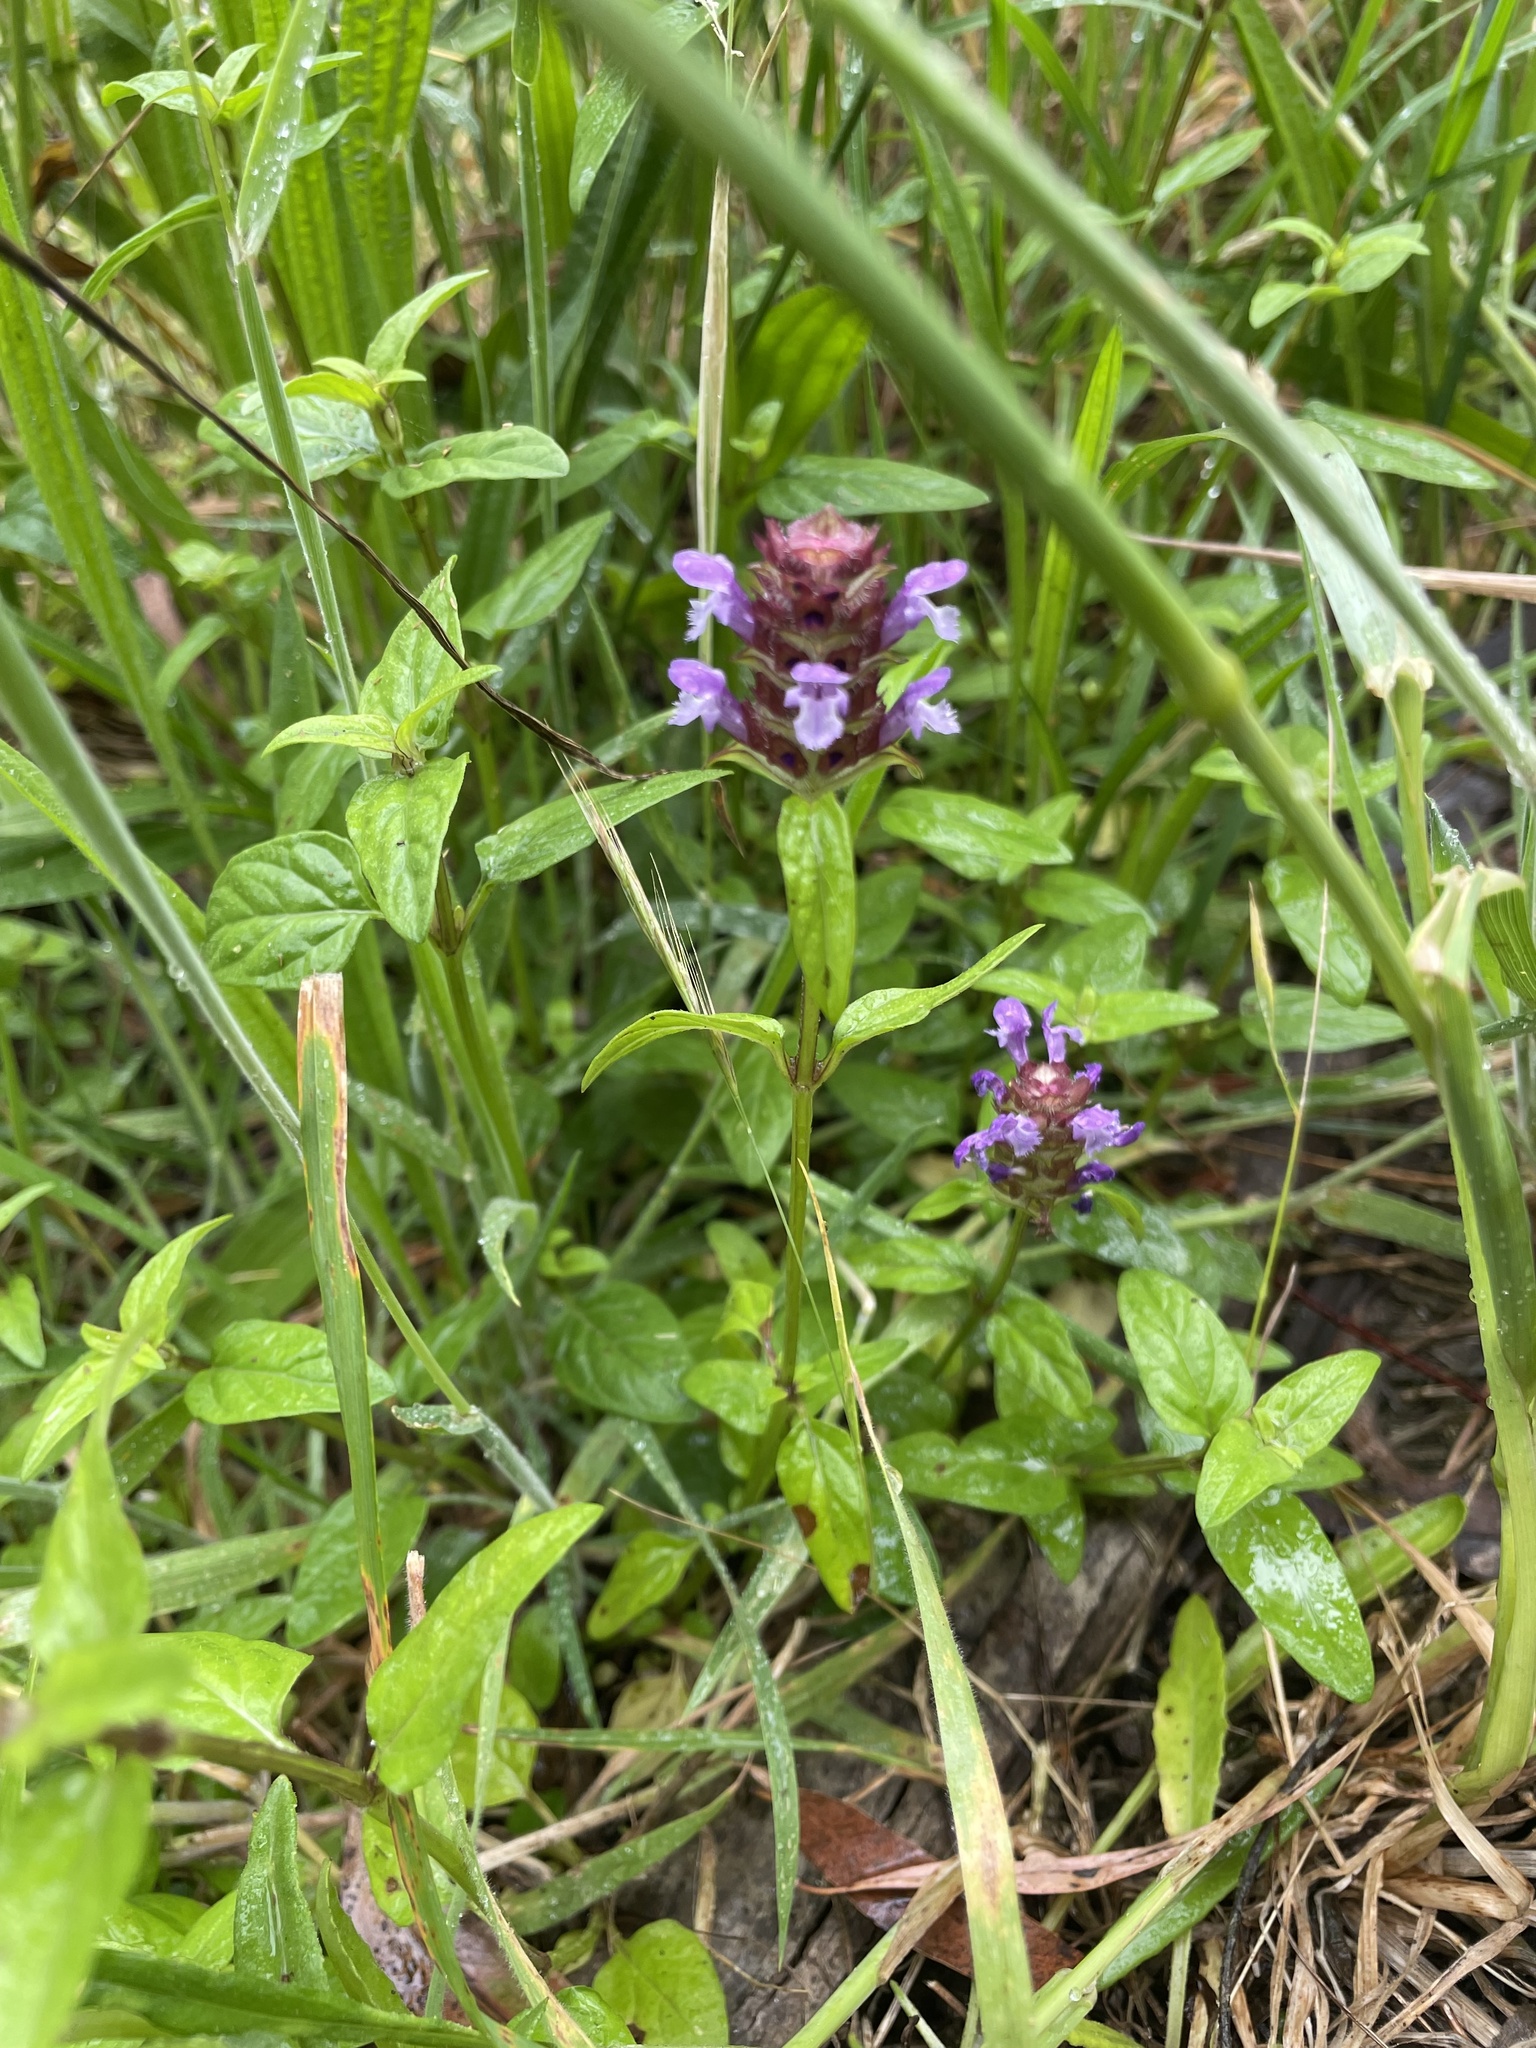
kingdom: Plantae
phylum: Tracheophyta
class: Magnoliopsida
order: Lamiales
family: Lamiaceae
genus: Prunella
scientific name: Prunella vulgaris
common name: Heal-all
